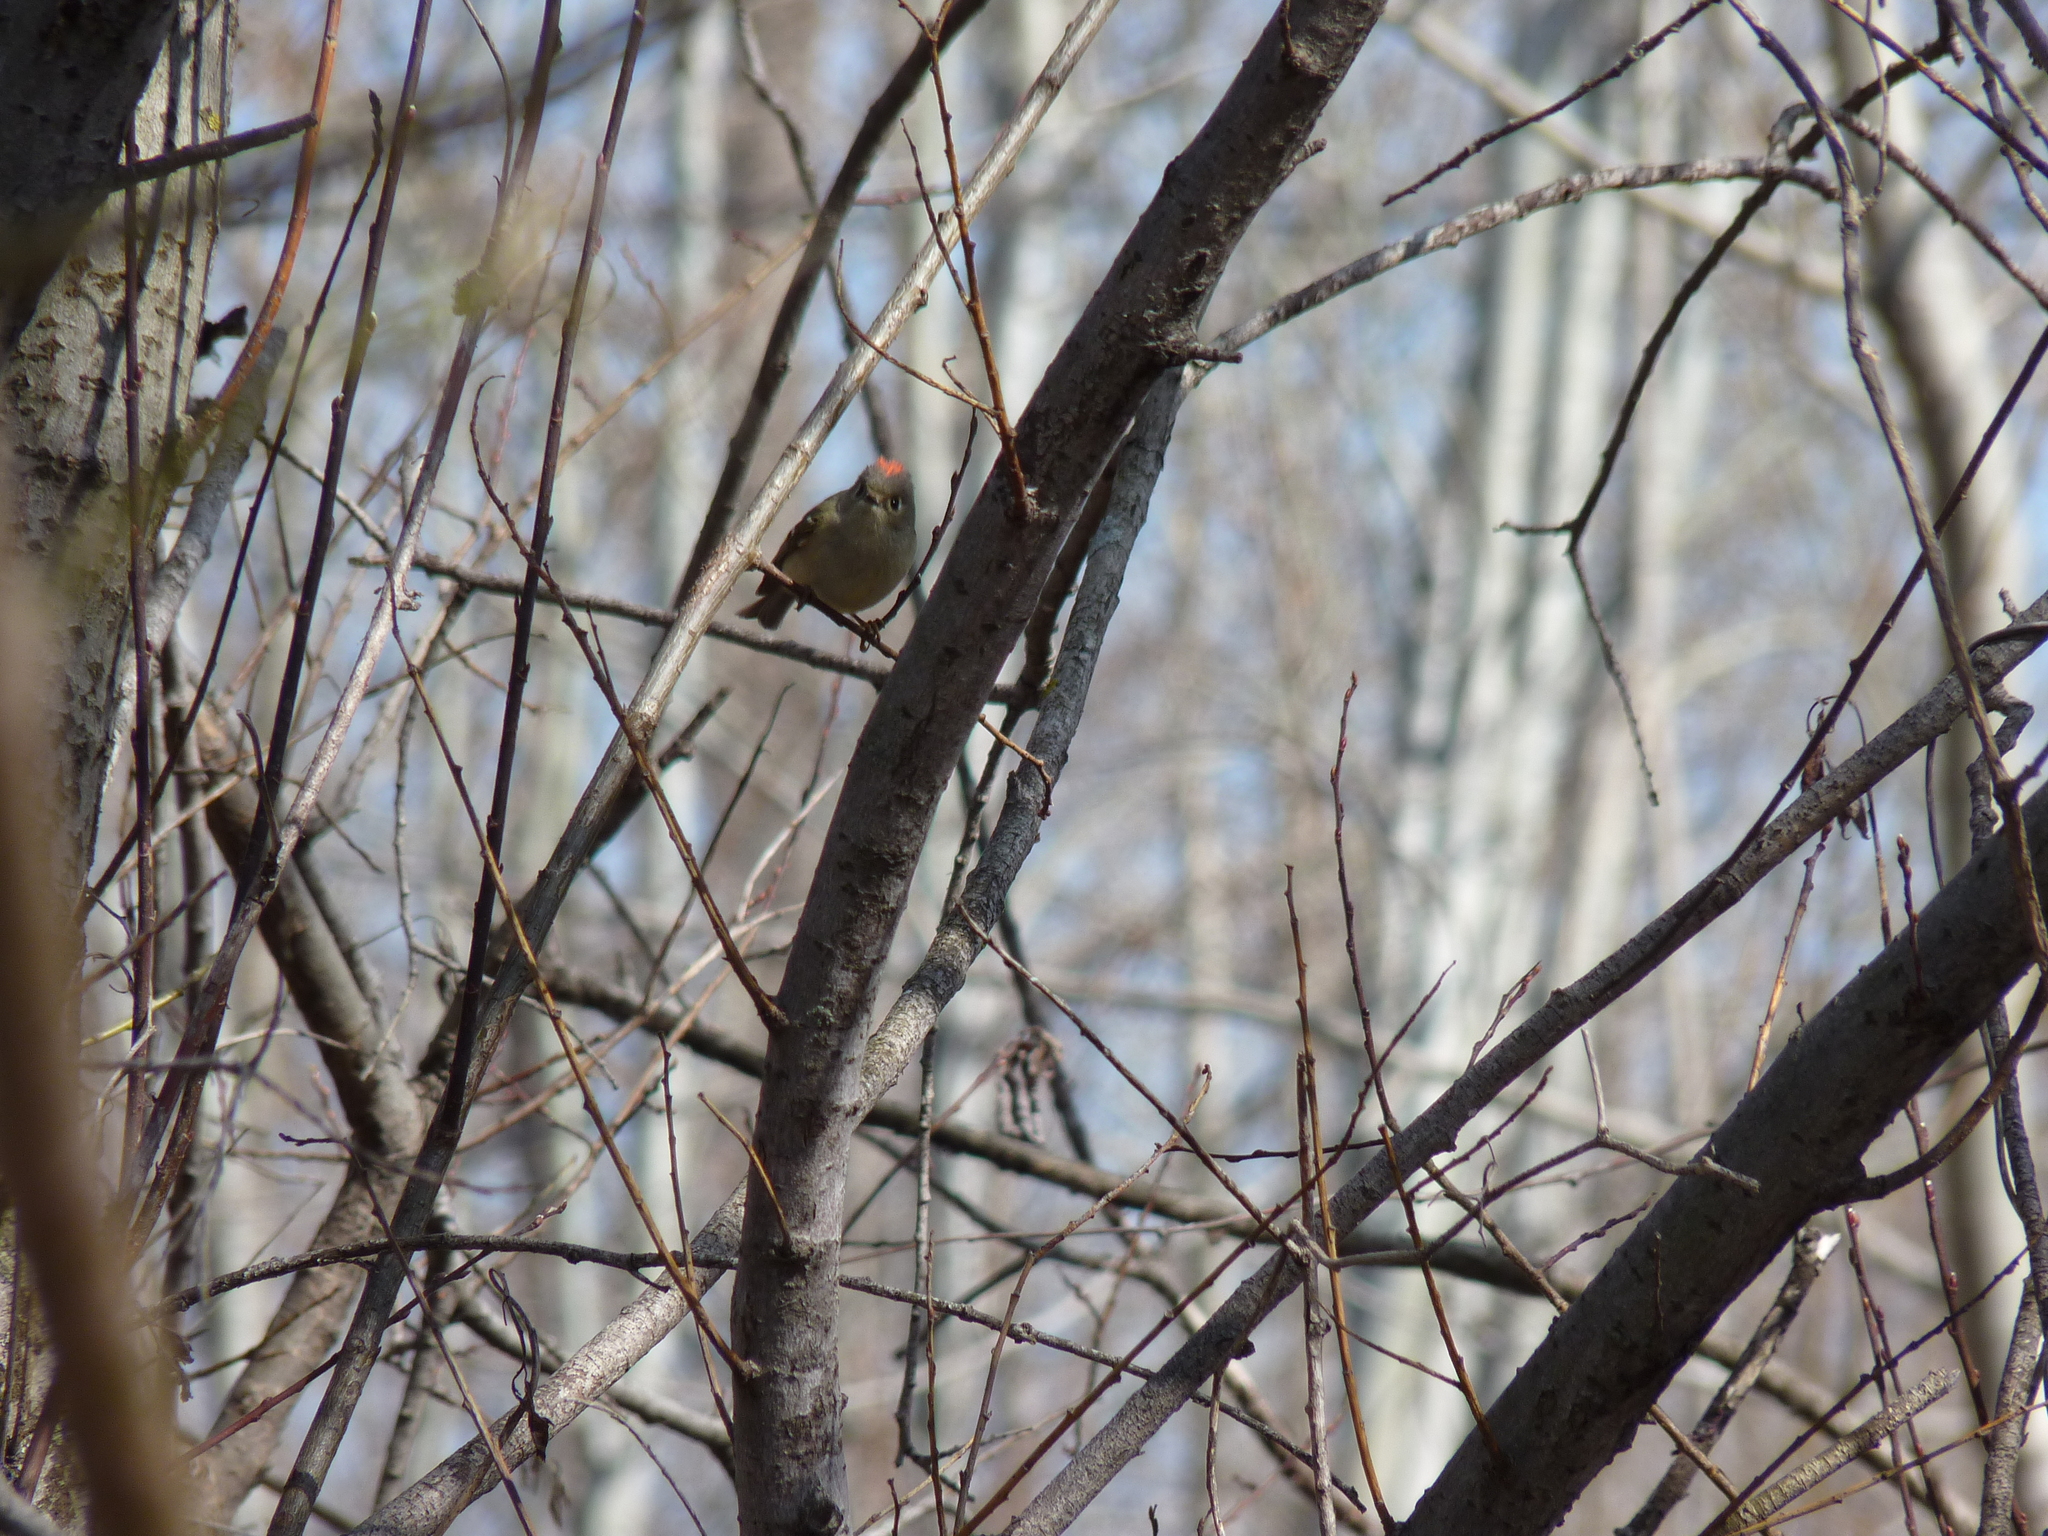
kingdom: Animalia
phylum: Chordata
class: Aves
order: Passeriformes
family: Regulidae
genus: Regulus
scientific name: Regulus calendula
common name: Ruby-crowned kinglet
